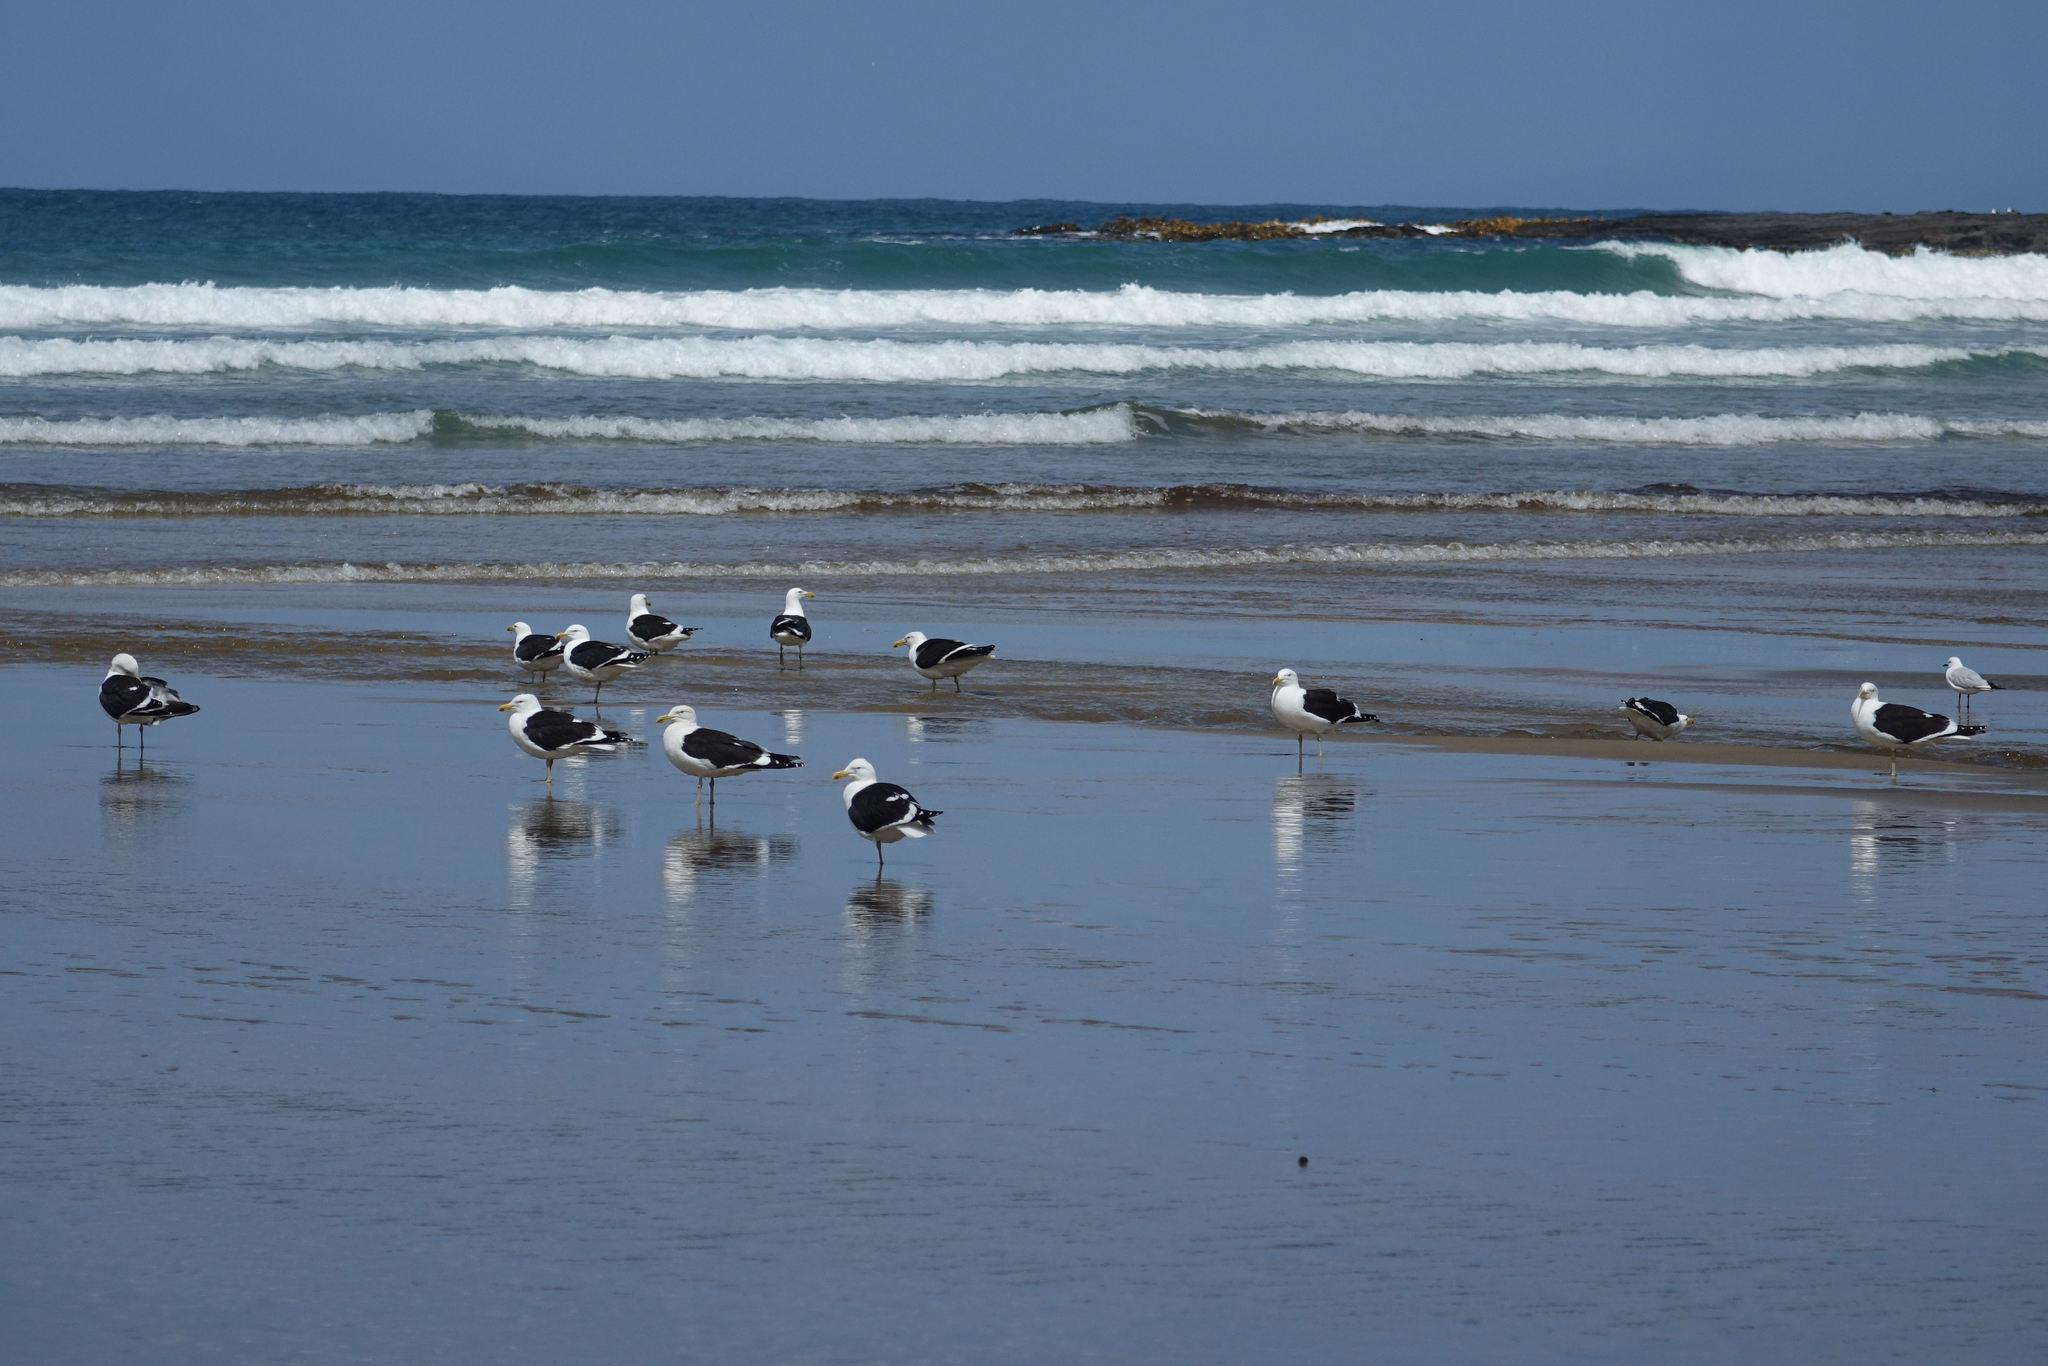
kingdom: Animalia
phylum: Chordata
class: Aves
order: Charadriiformes
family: Laridae
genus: Larus
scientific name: Larus dominicanus
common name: Kelp gull
